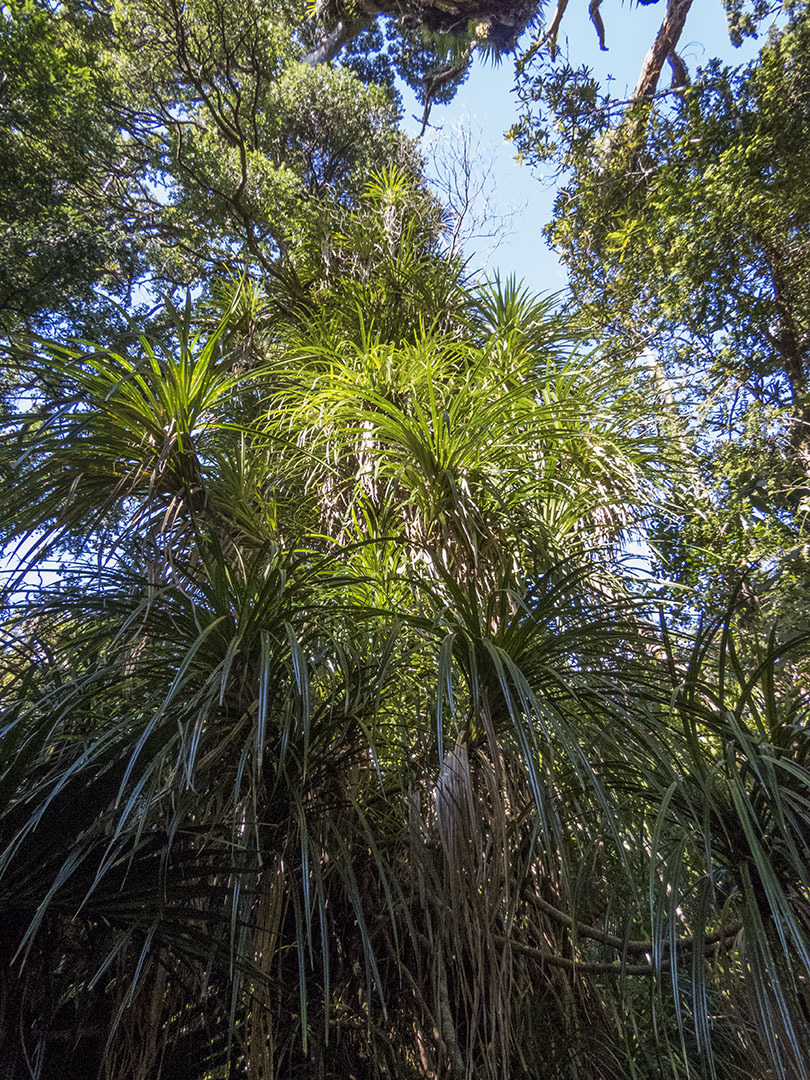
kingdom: Plantae
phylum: Tracheophyta
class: Liliopsida
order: Pandanales
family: Pandanaceae
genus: Freycinetia
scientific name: Freycinetia banksii
